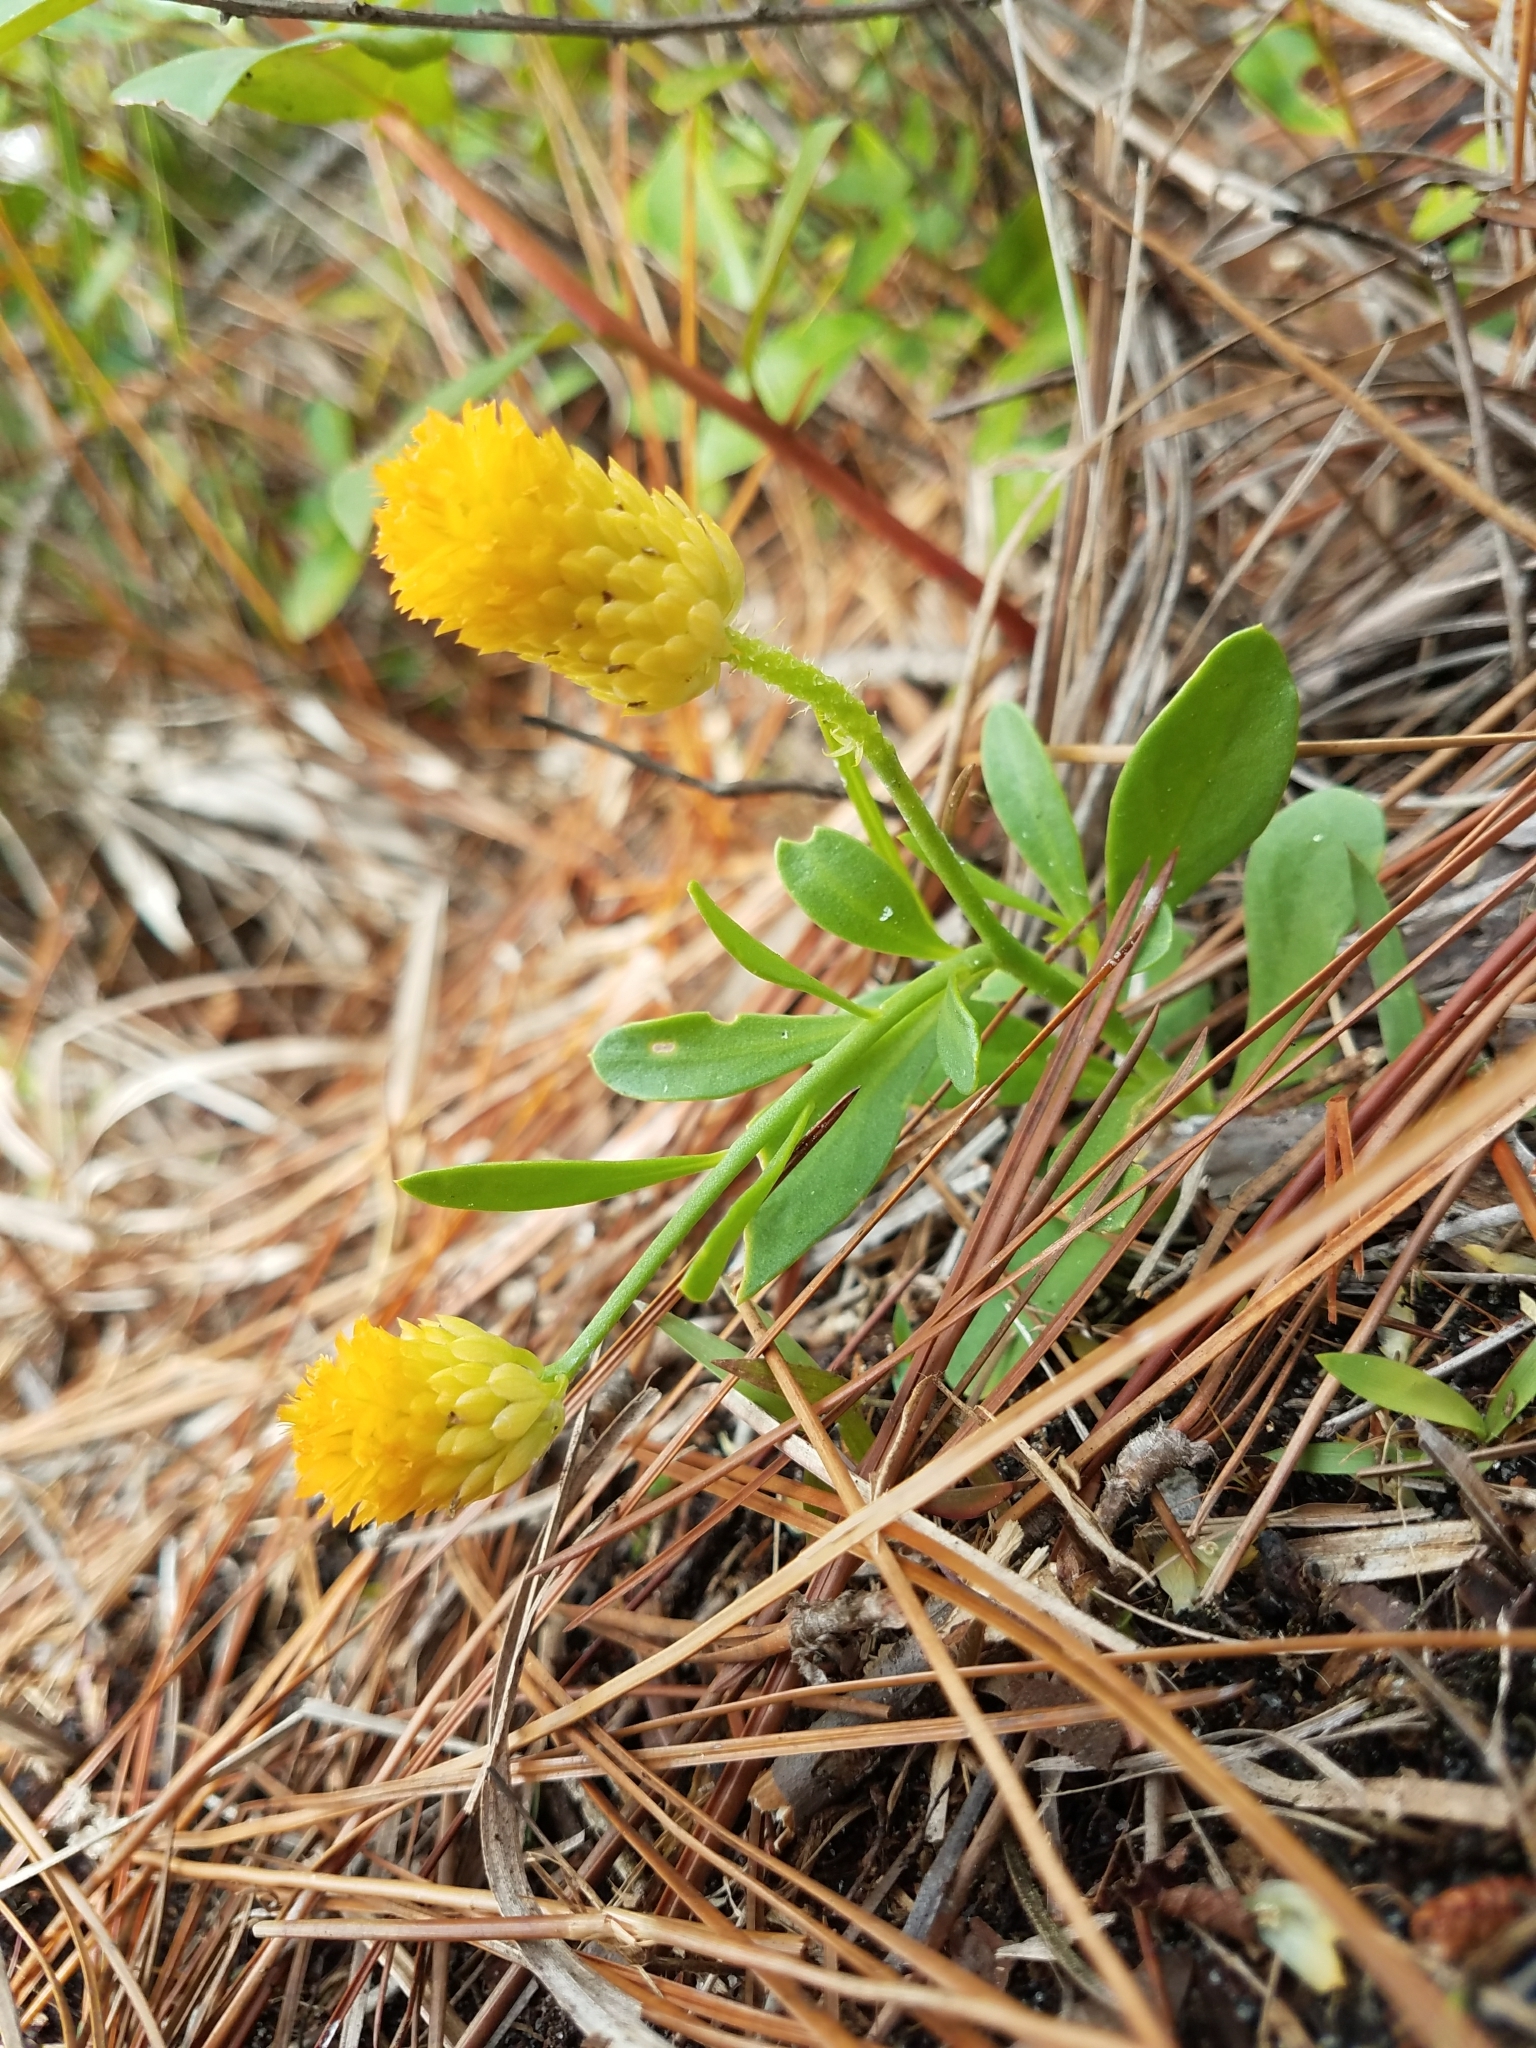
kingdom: Plantae
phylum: Tracheophyta
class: Magnoliopsida
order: Fabales
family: Polygalaceae
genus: Polygala
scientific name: Polygala lutea
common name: Orange milkwort
